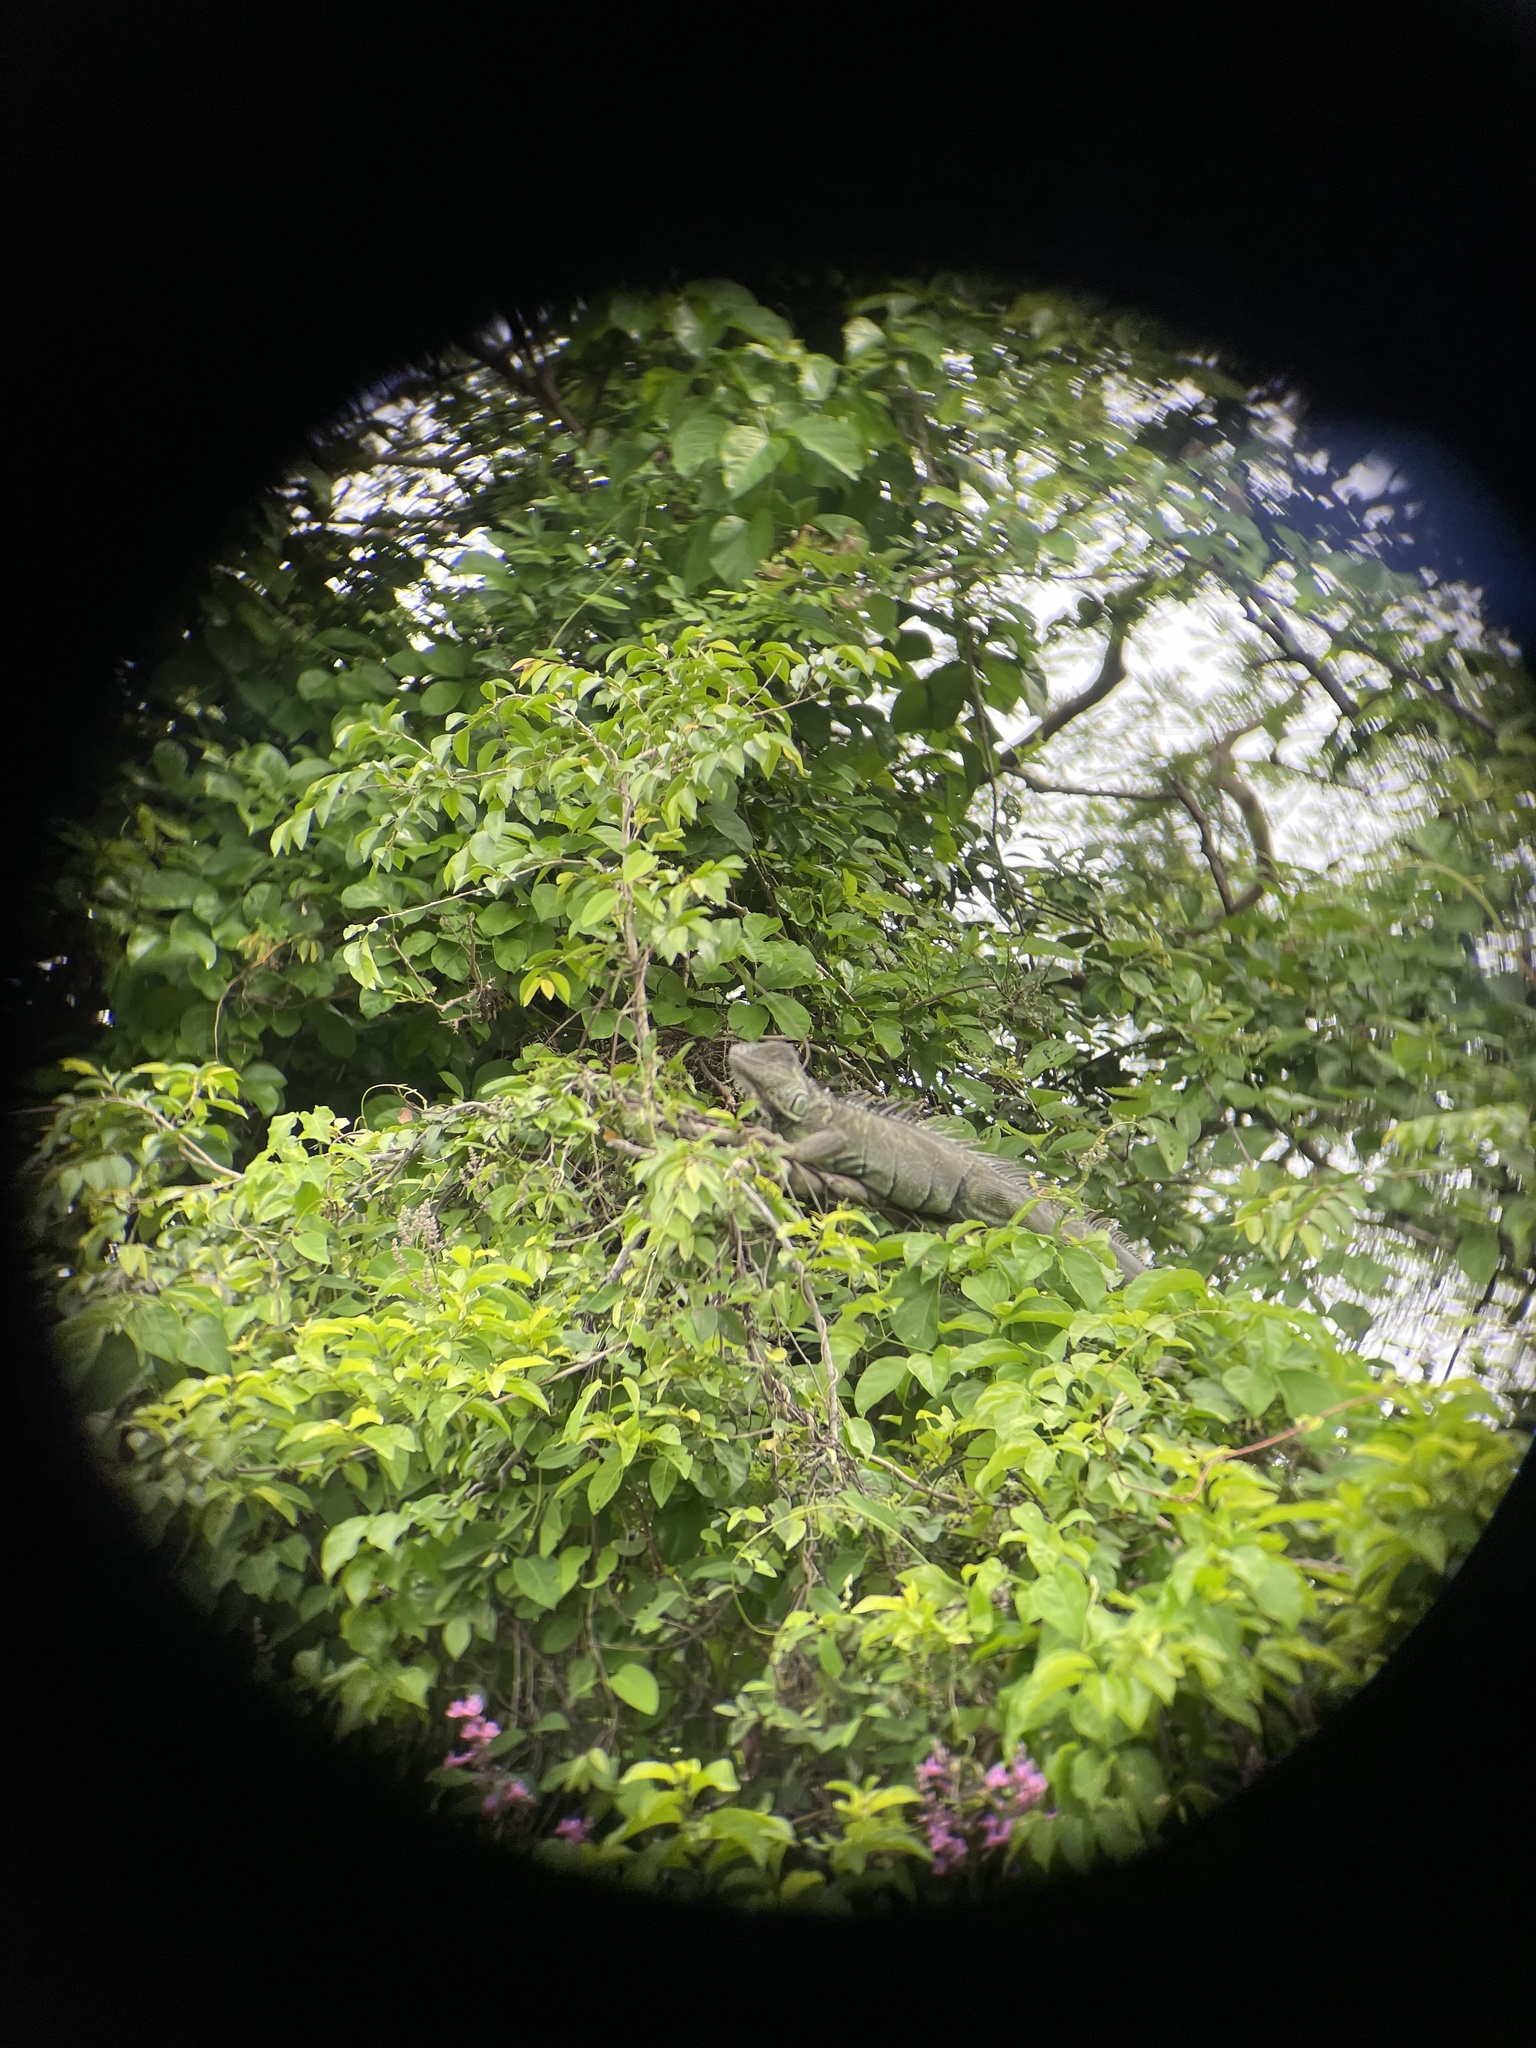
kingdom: Animalia
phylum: Chordata
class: Squamata
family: Iguanidae
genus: Iguana
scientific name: Iguana iguana
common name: Green iguana
